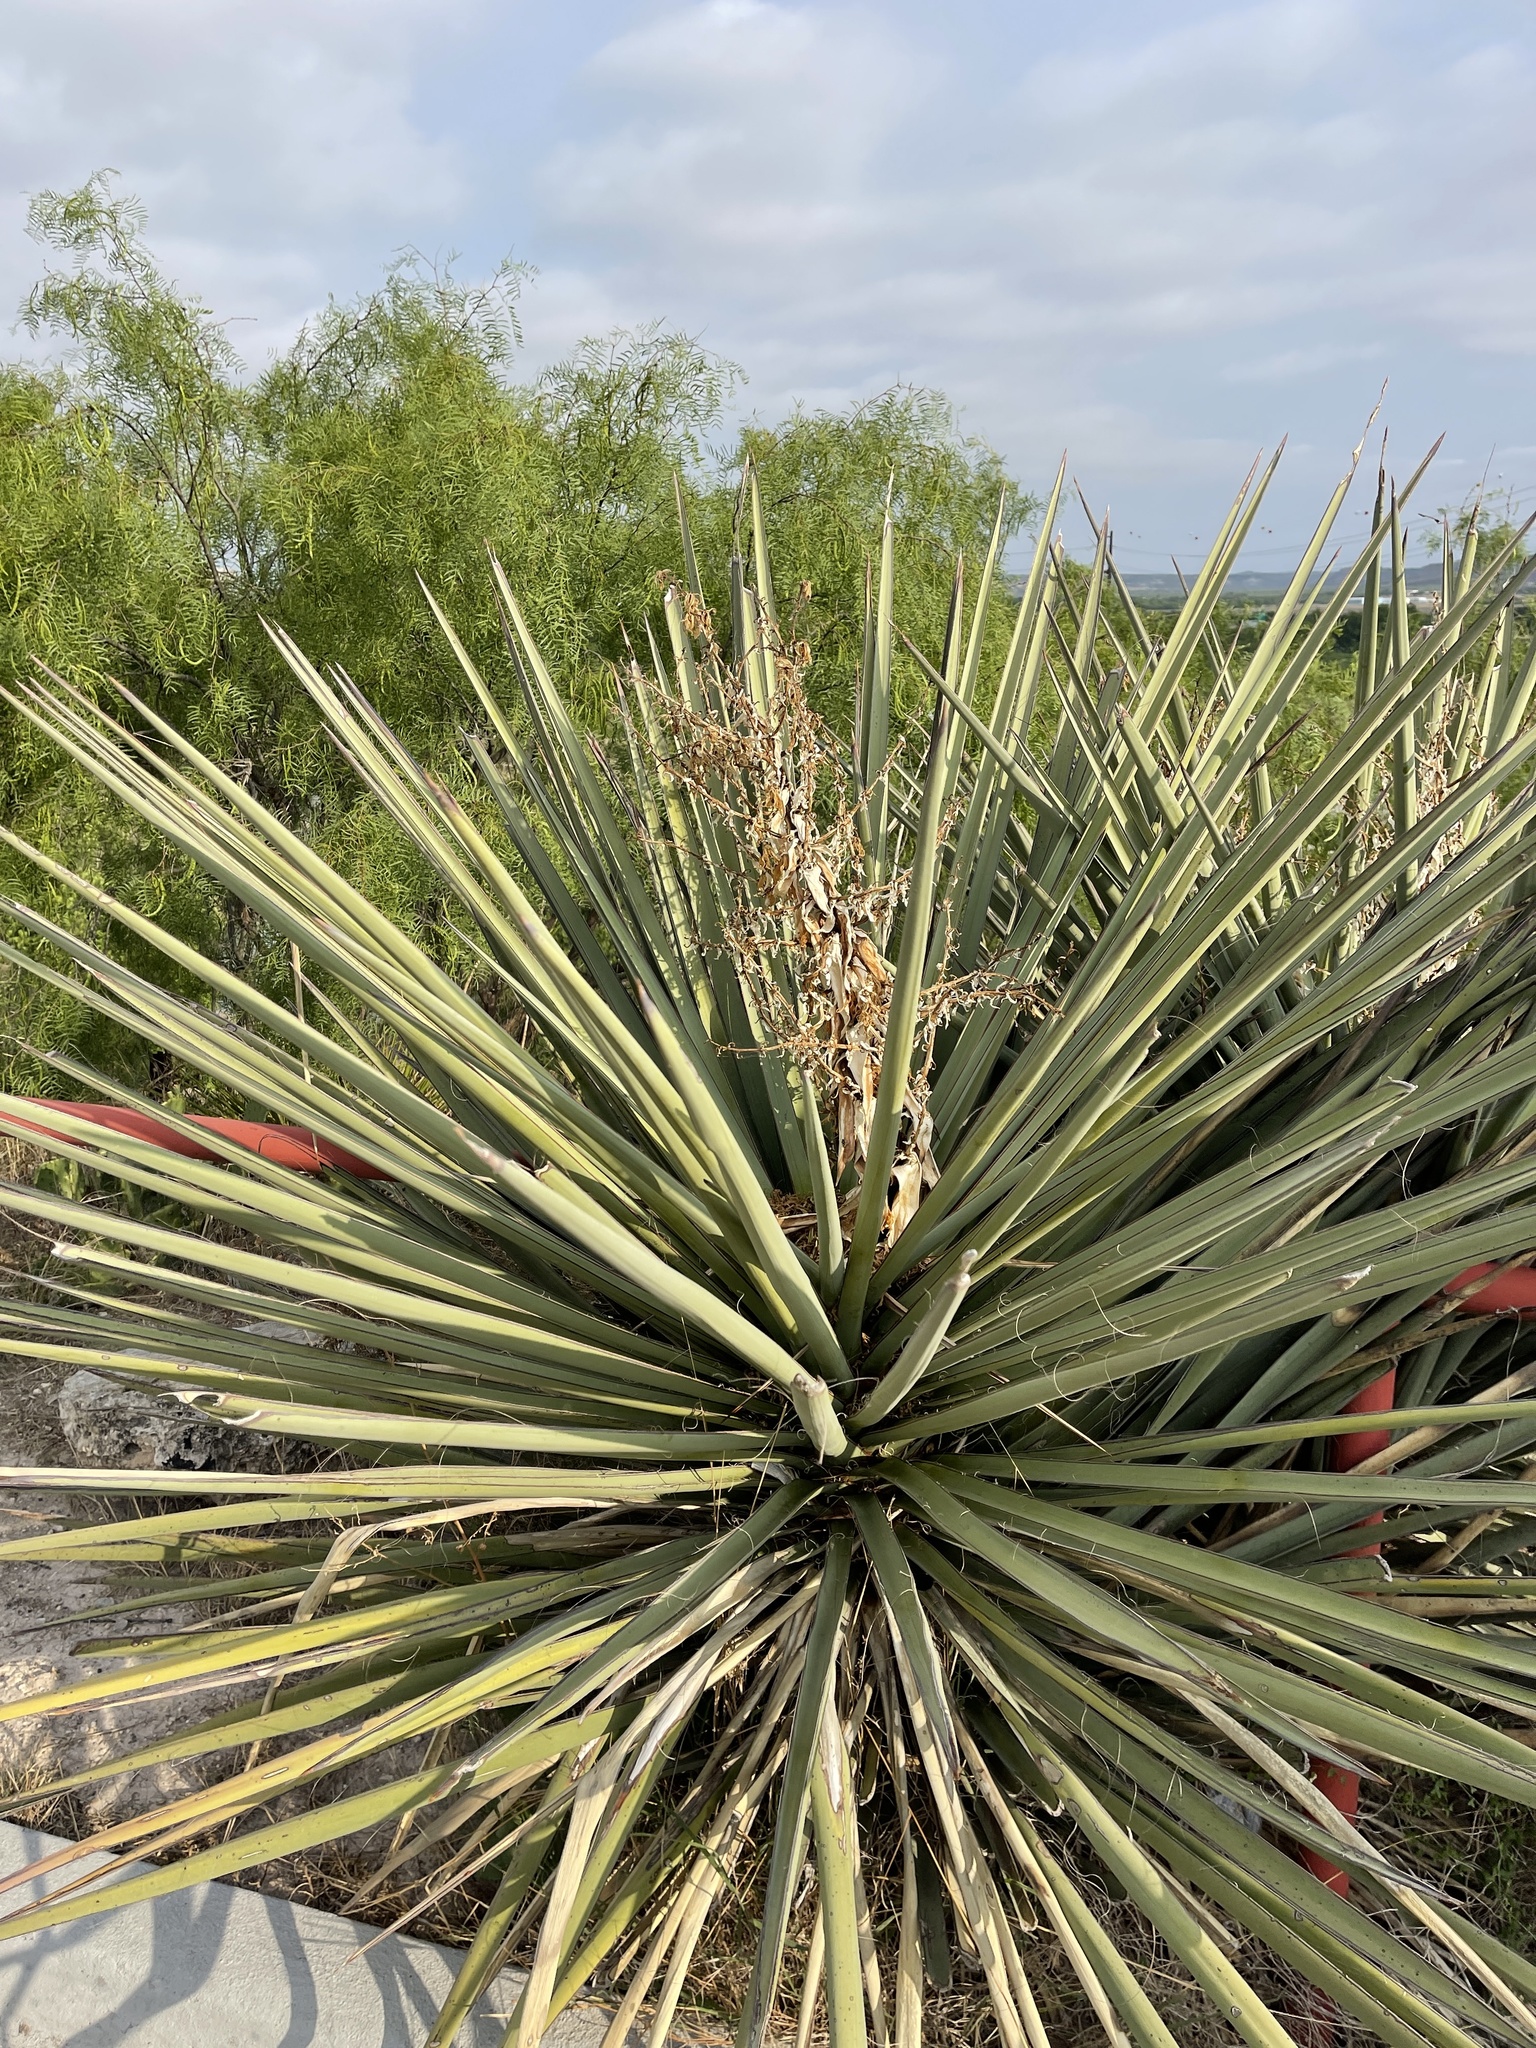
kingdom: Plantae
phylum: Tracheophyta
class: Liliopsida
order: Asparagales
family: Asparagaceae
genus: Yucca
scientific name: Yucca treculiana
